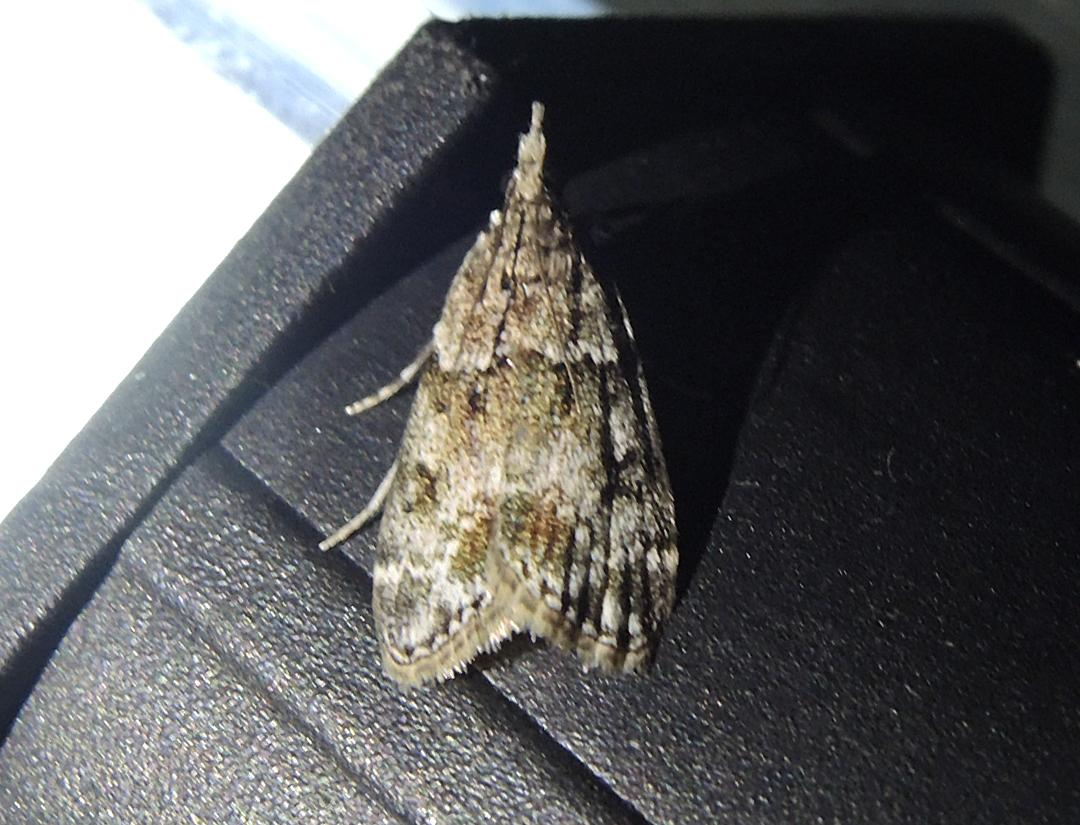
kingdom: Animalia
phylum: Arthropoda
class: Insecta
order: Lepidoptera
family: Crambidae
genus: Eudonia
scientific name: Eudonia mercurella
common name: Small grey
